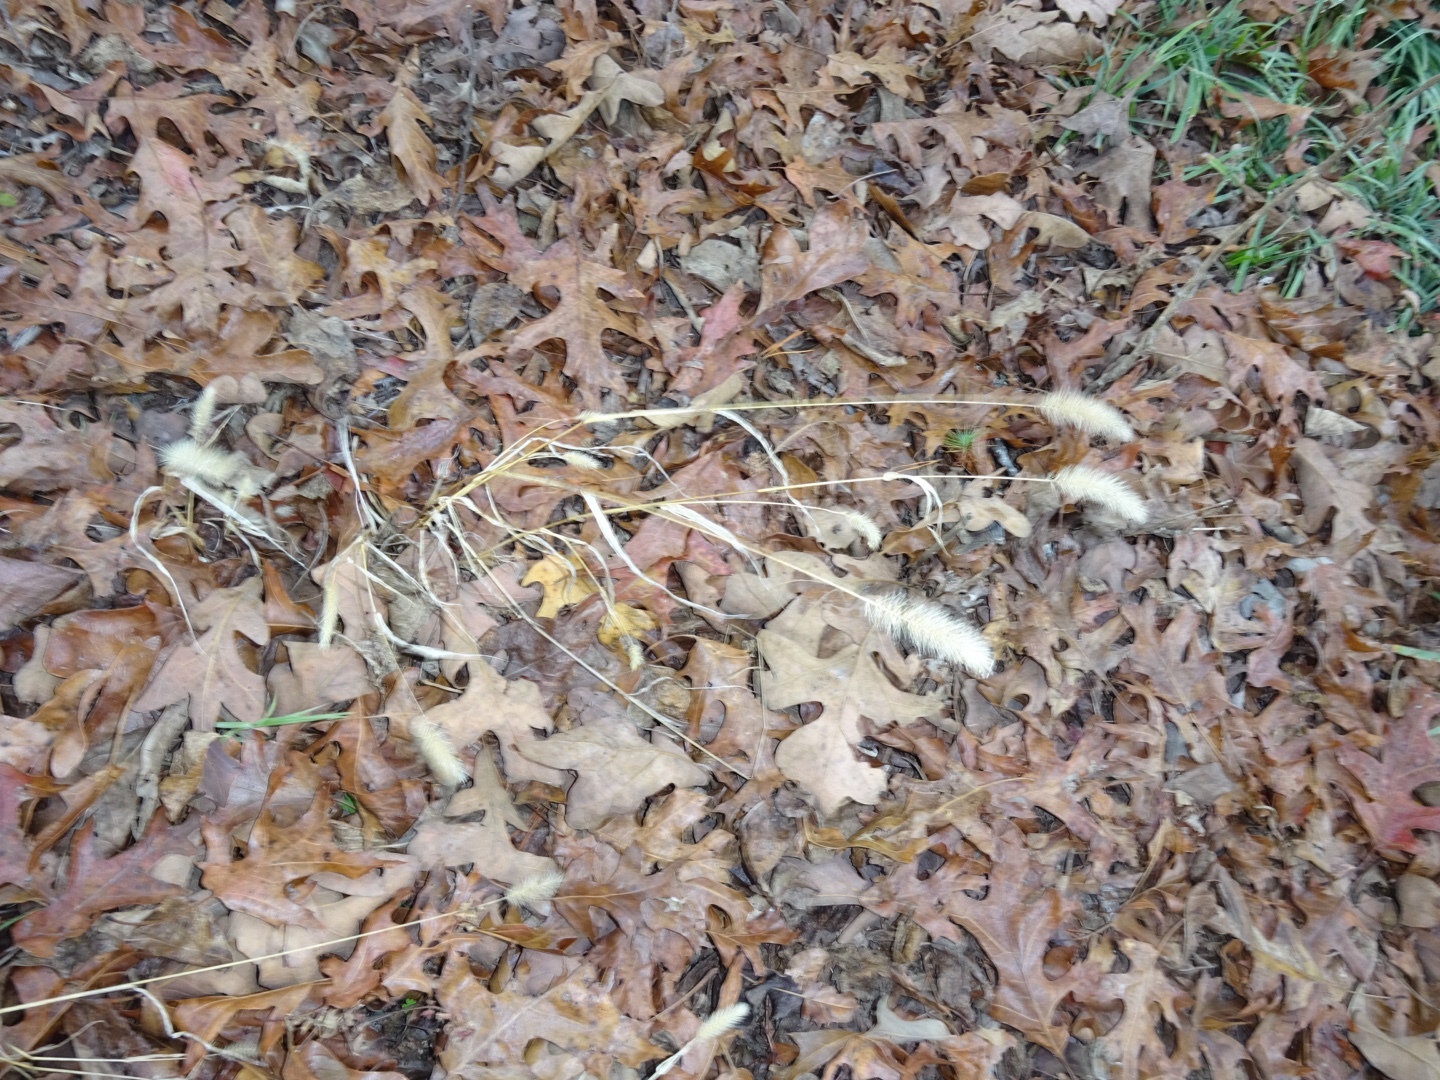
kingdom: Plantae
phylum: Tracheophyta
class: Liliopsida
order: Poales
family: Poaceae
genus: Setaria
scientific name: Setaria viridis
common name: Green bristlegrass
